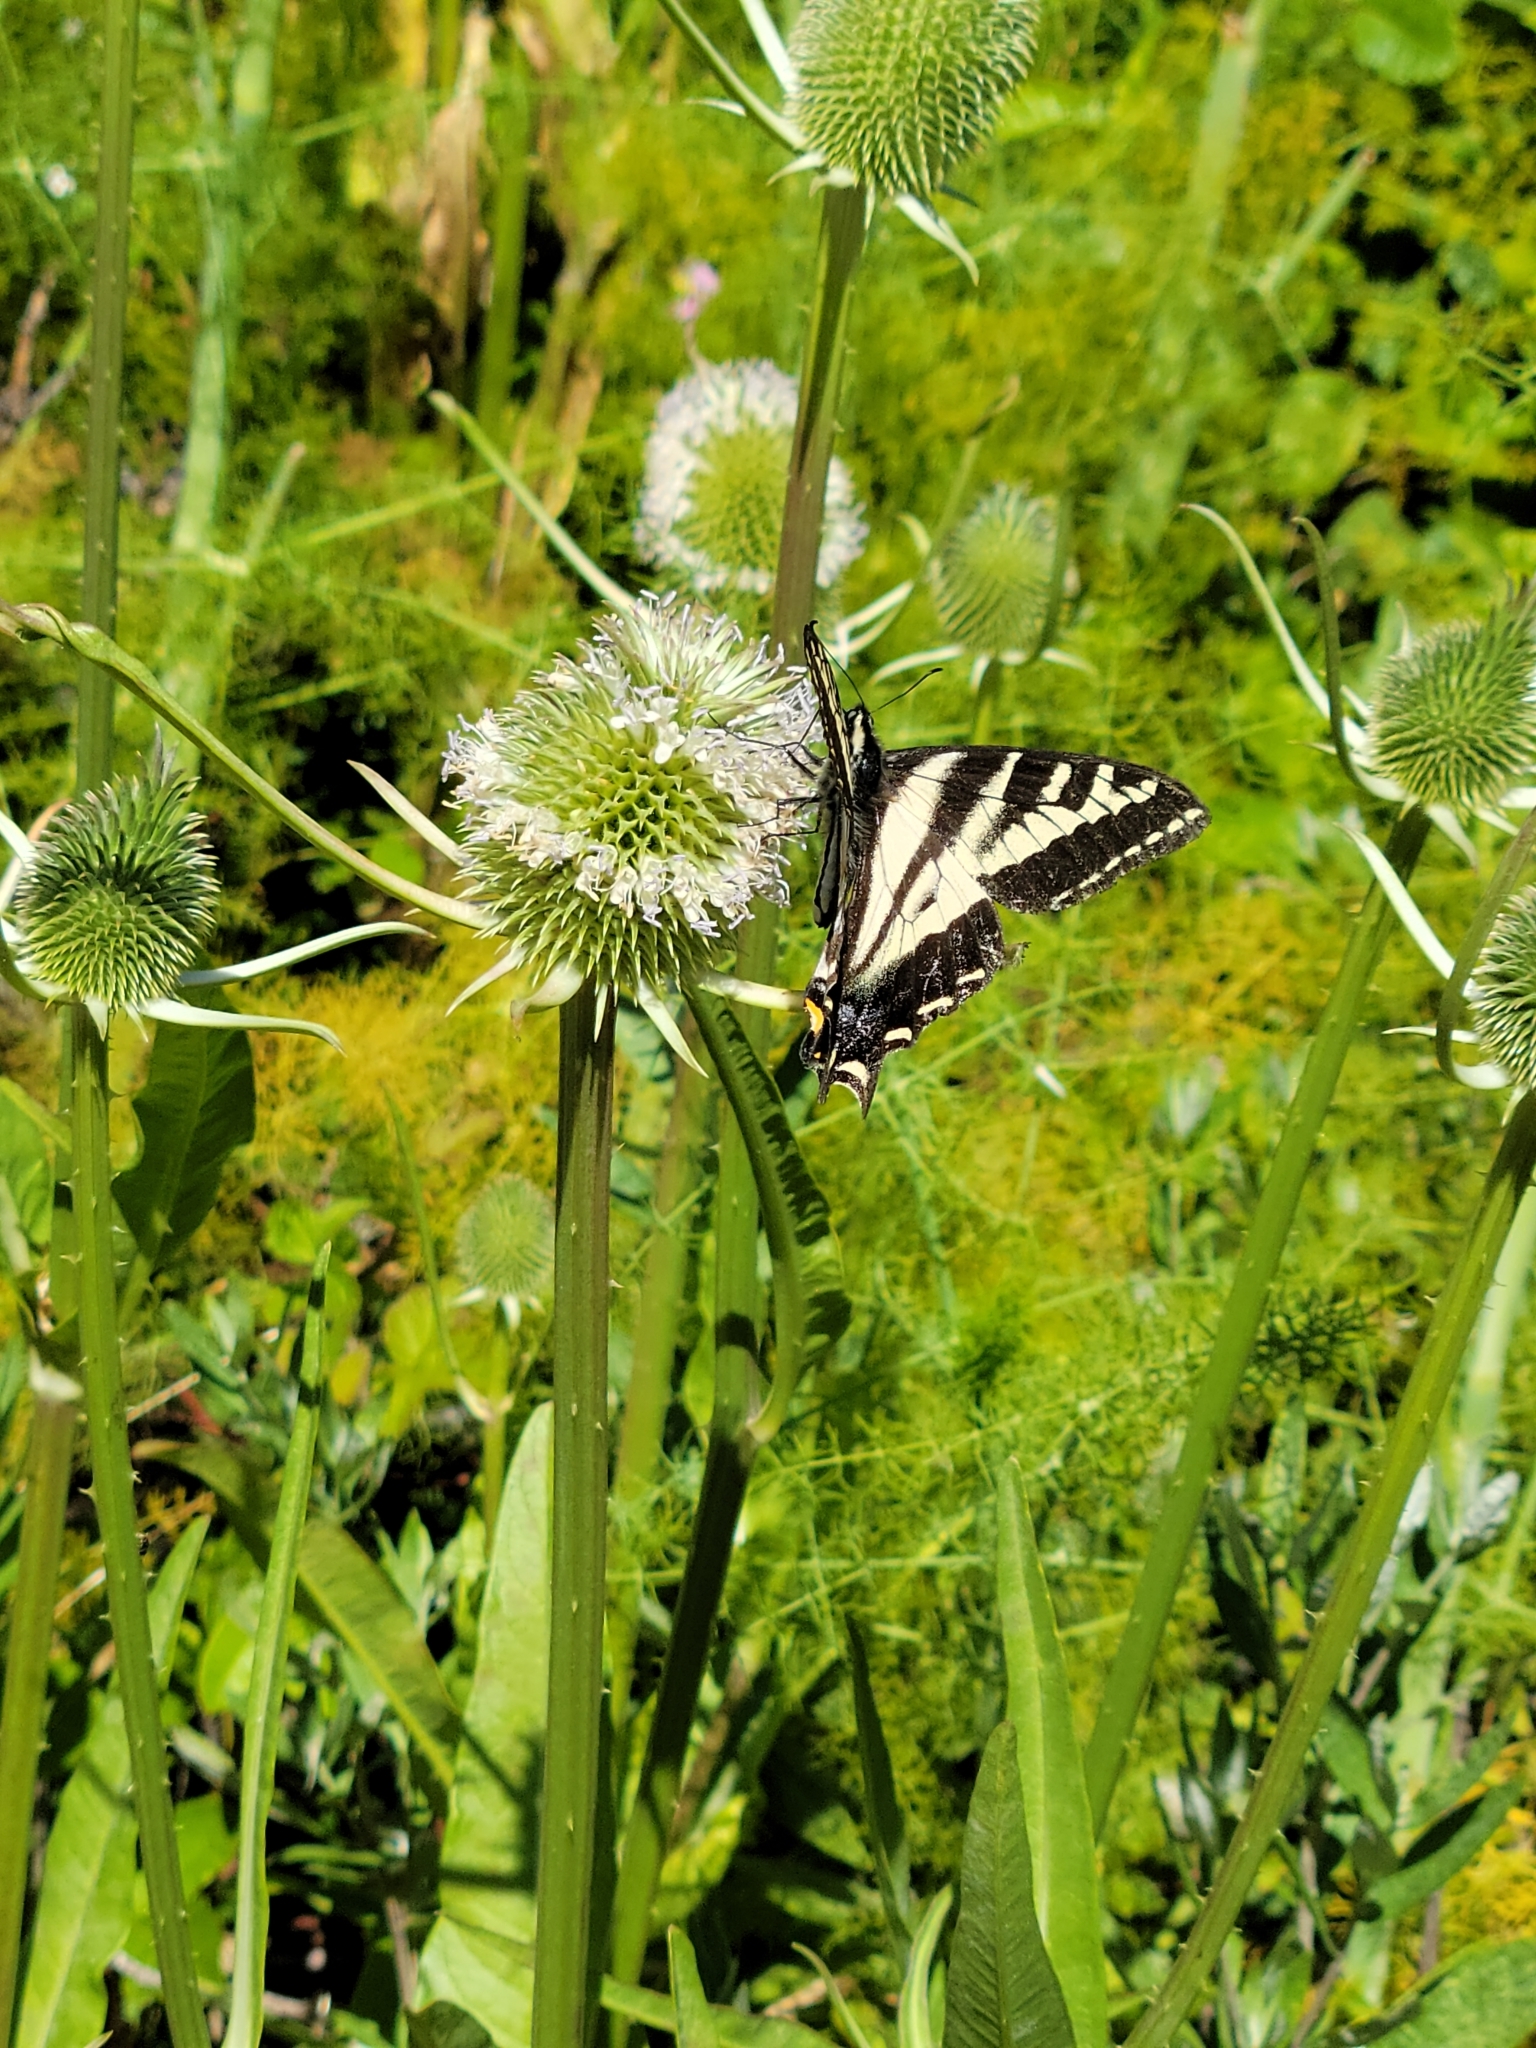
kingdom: Animalia
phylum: Arthropoda
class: Insecta
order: Lepidoptera
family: Papilionidae
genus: Papilio
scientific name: Papilio eurymedon
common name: Pale tiger swallowtail
